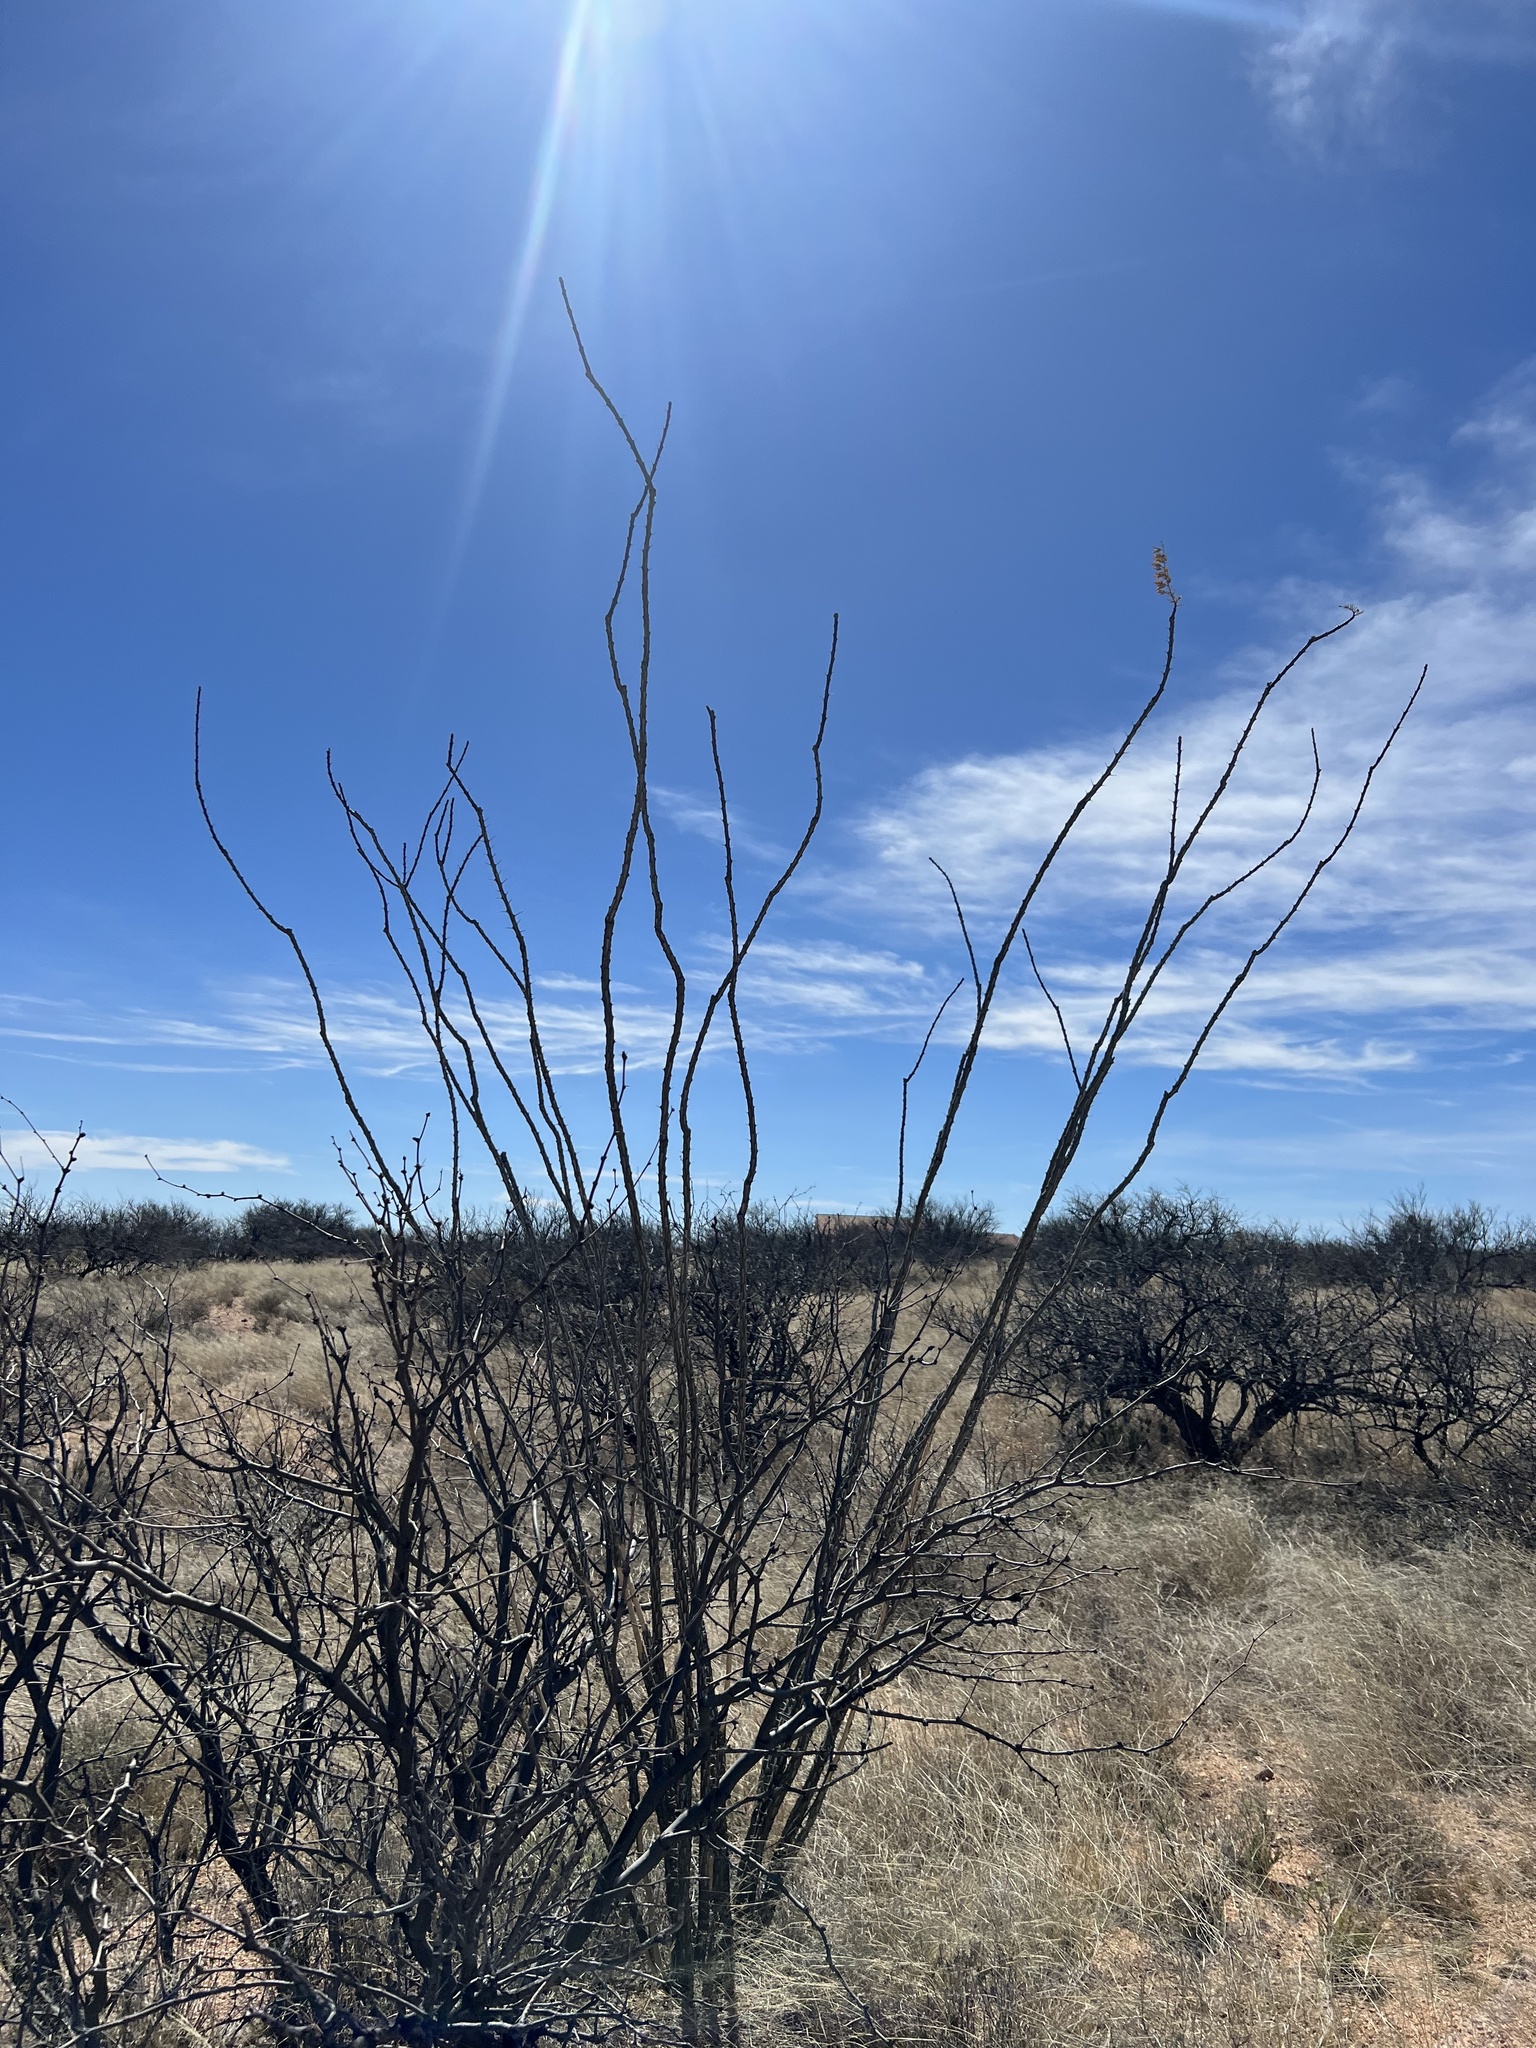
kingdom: Plantae
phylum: Tracheophyta
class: Magnoliopsida
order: Ericales
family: Fouquieriaceae
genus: Fouquieria
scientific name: Fouquieria splendens
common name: Vine-cactus
